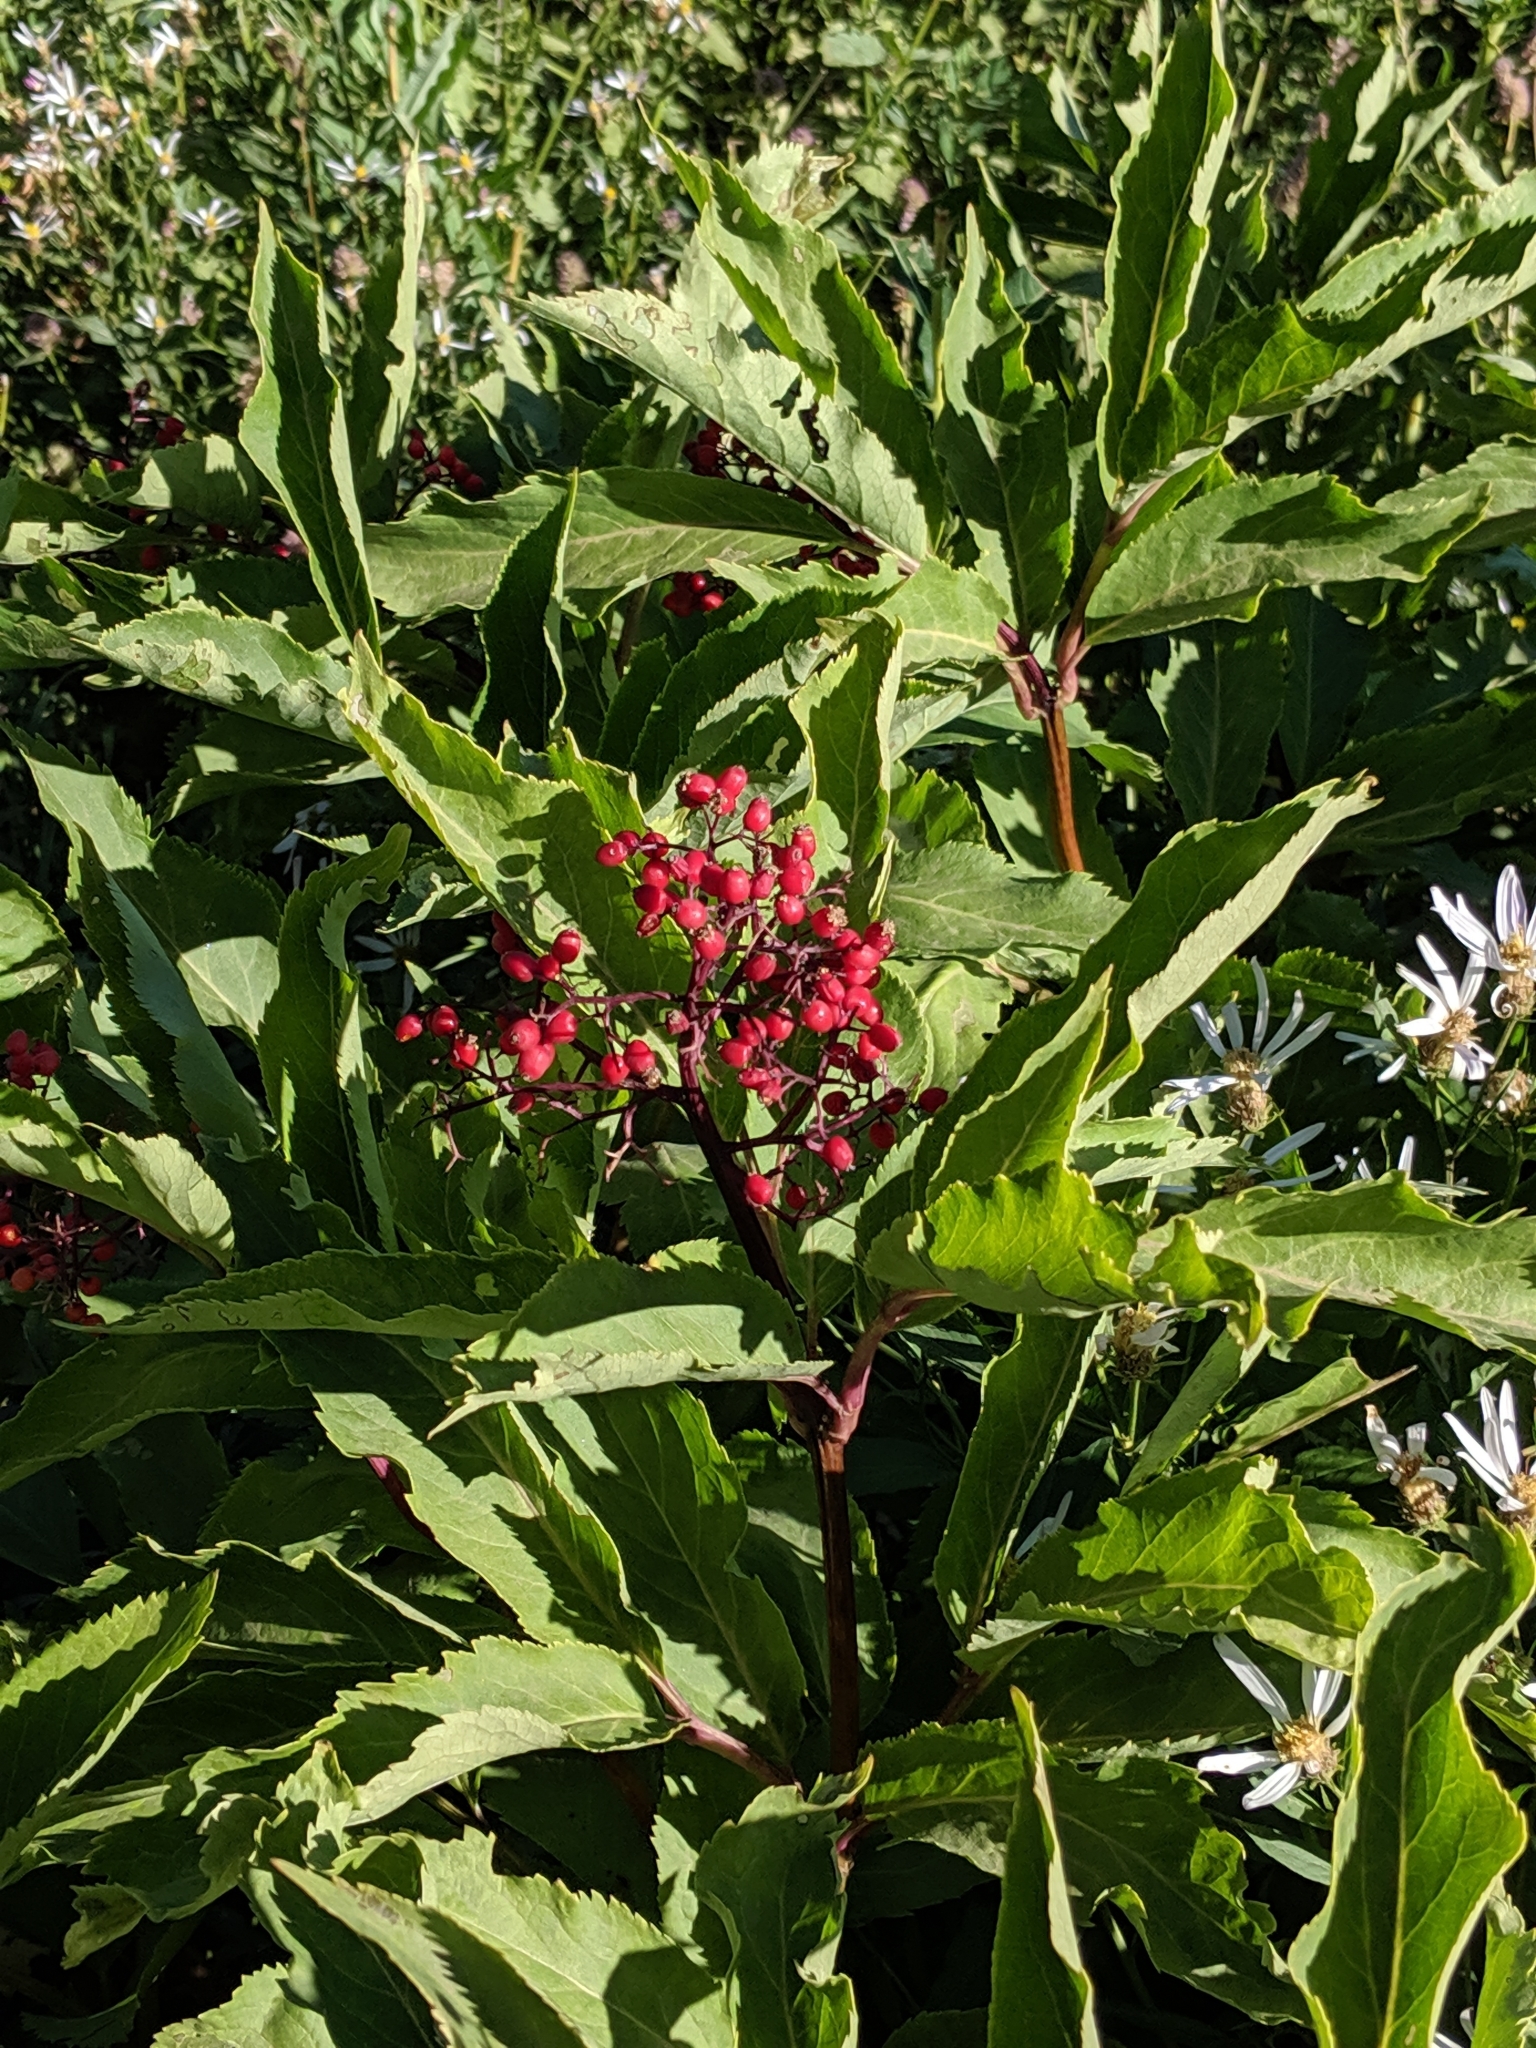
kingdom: Plantae
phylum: Tracheophyta
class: Magnoliopsida
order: Dipsacales
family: Viburnaceae
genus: Sambucus
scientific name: Sambucus racemosa
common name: Red-berried elder
